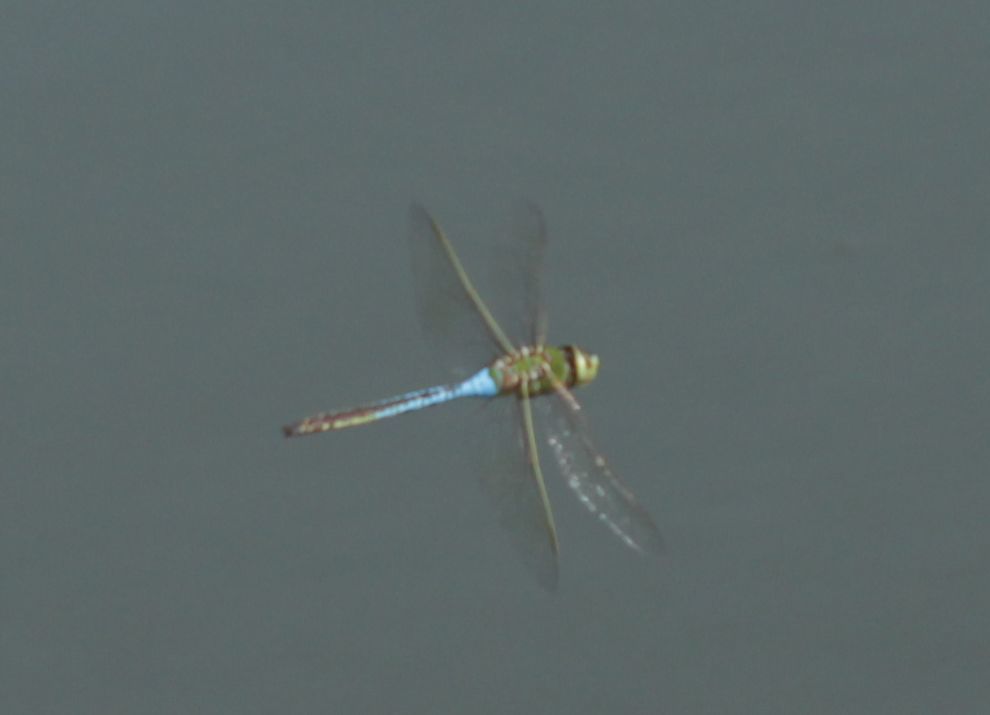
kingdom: Animalia
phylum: Arthropoda
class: Insecta
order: Odonata
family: Aeshnidae
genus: Anax
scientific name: Anax junius
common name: Common green darner
